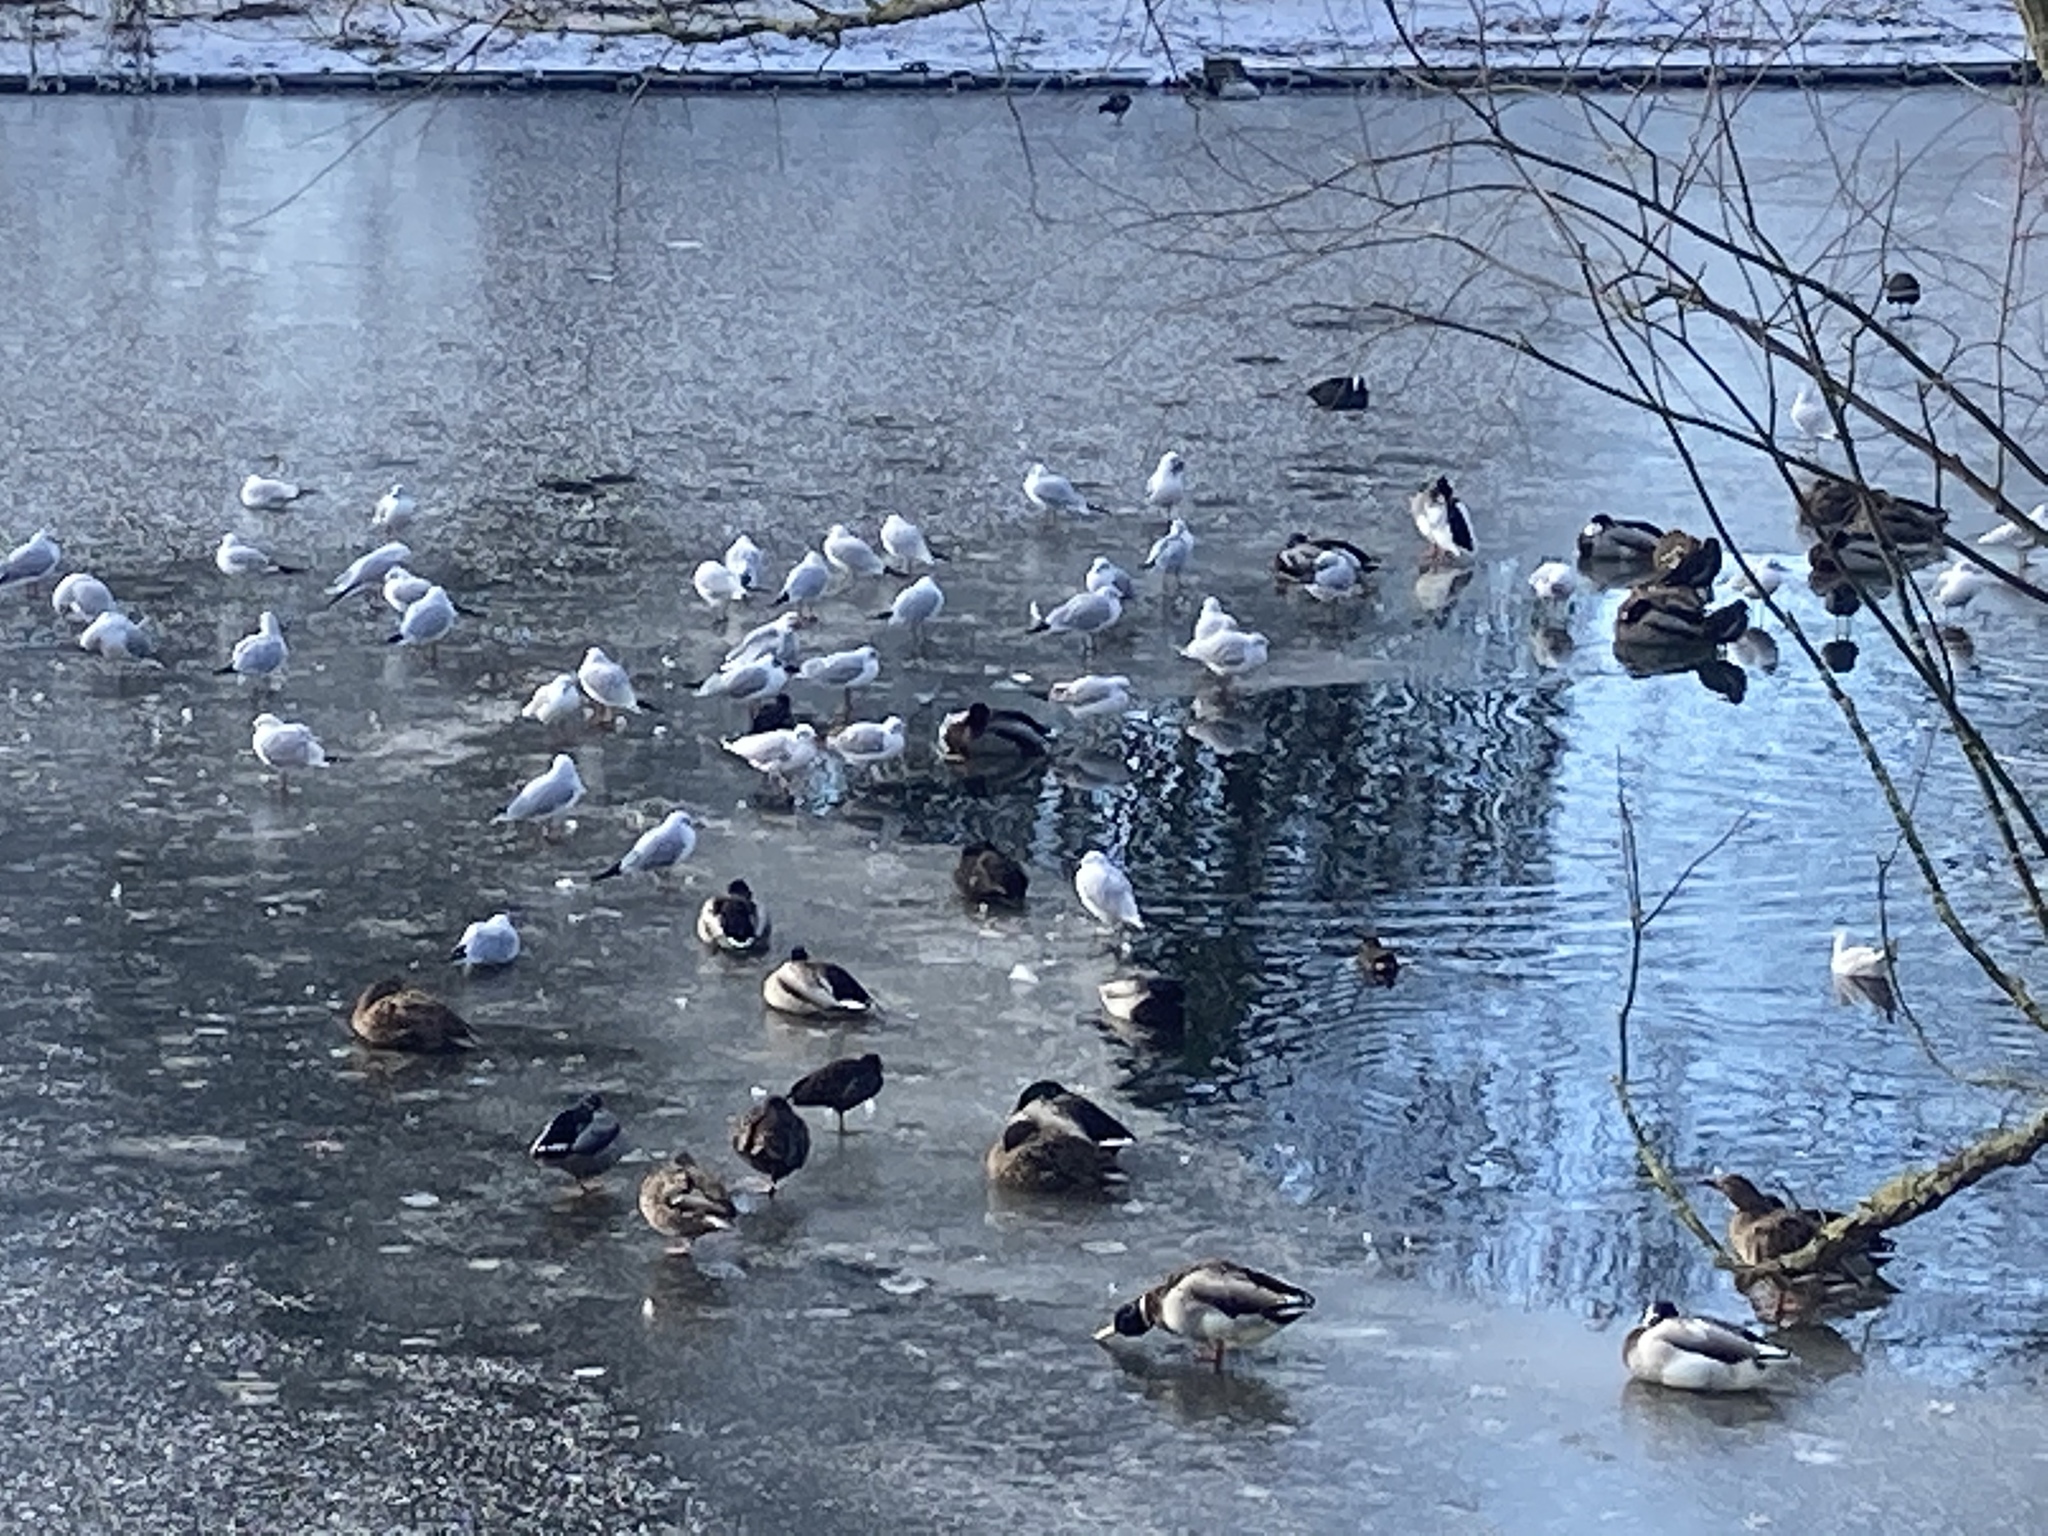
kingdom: Animalia
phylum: Chordata
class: Aves
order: Charadriiformes
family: Laridae
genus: Chroicocephalus
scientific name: Chroicocephalus ridibundus
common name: Black-headed gull
